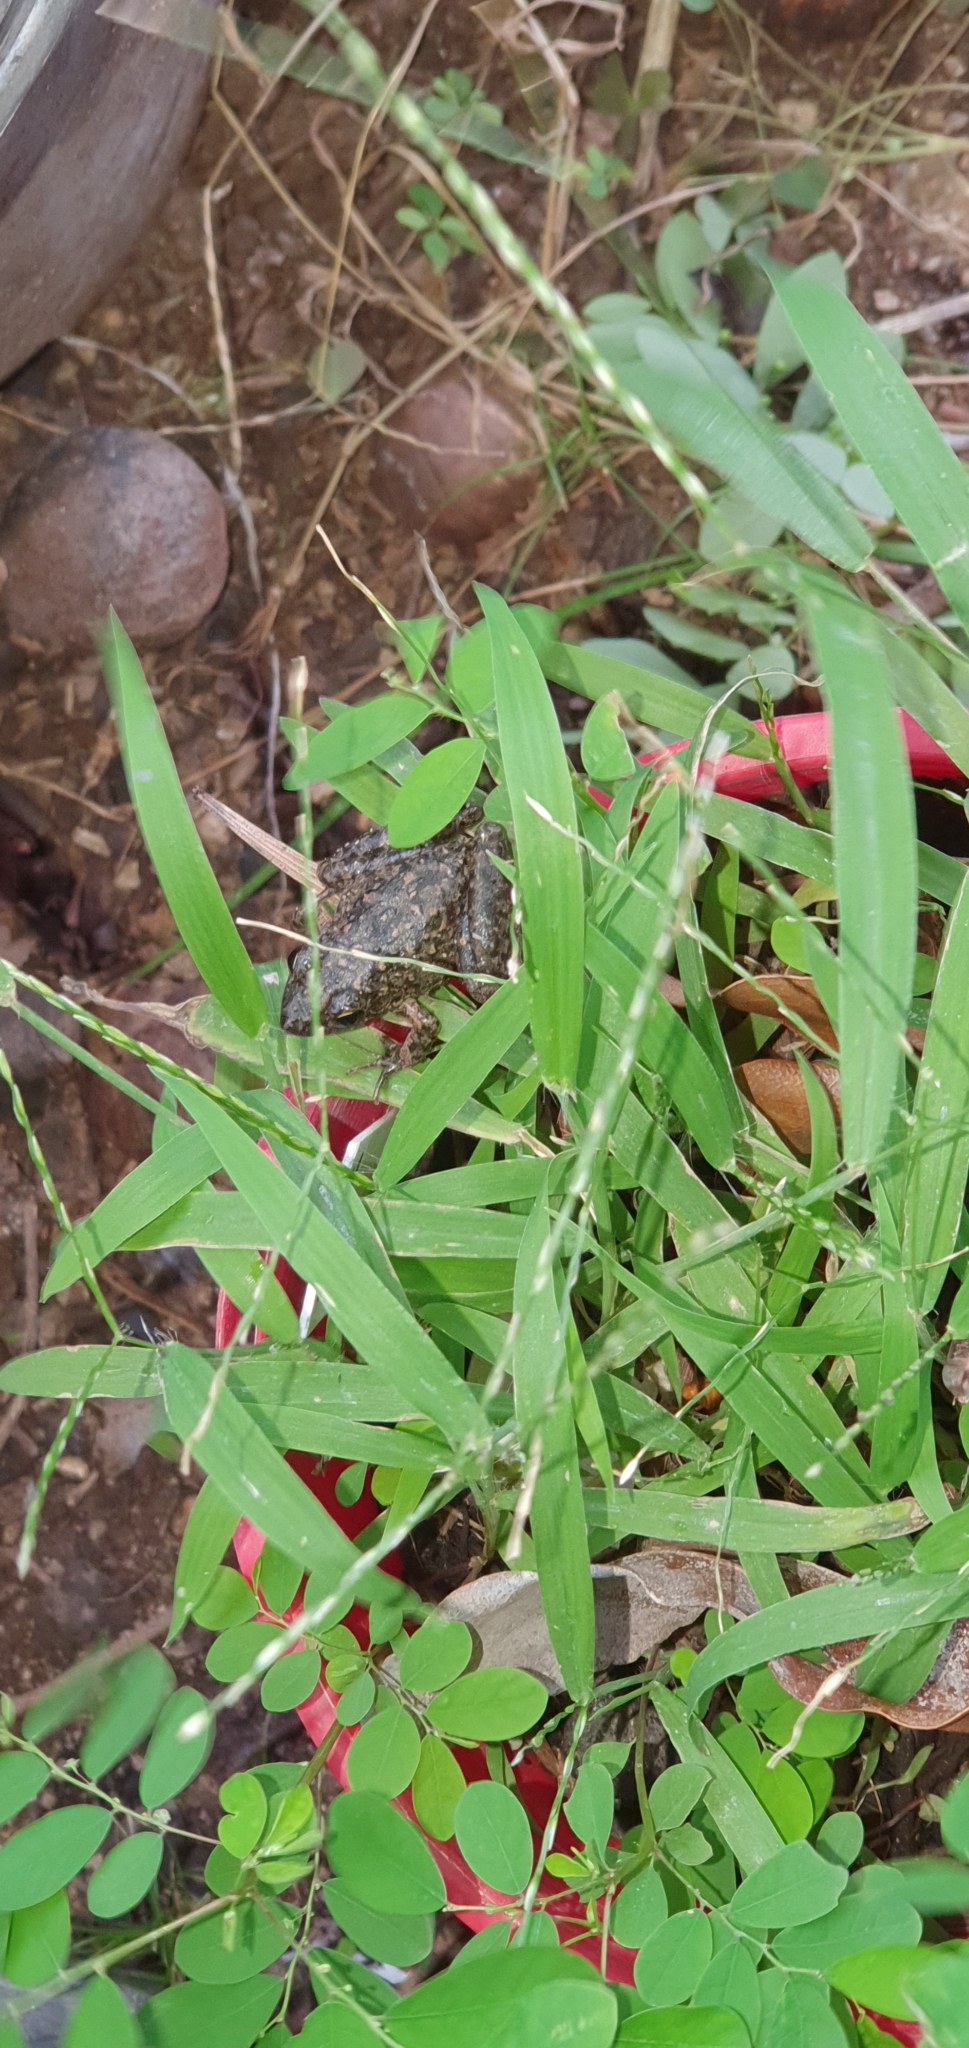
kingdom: Animalia
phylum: Chordata
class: Amphibia
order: Anura
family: Pelodryadidae
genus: Litoria
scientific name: Litoria inermis
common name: Bumpy rocket frog
